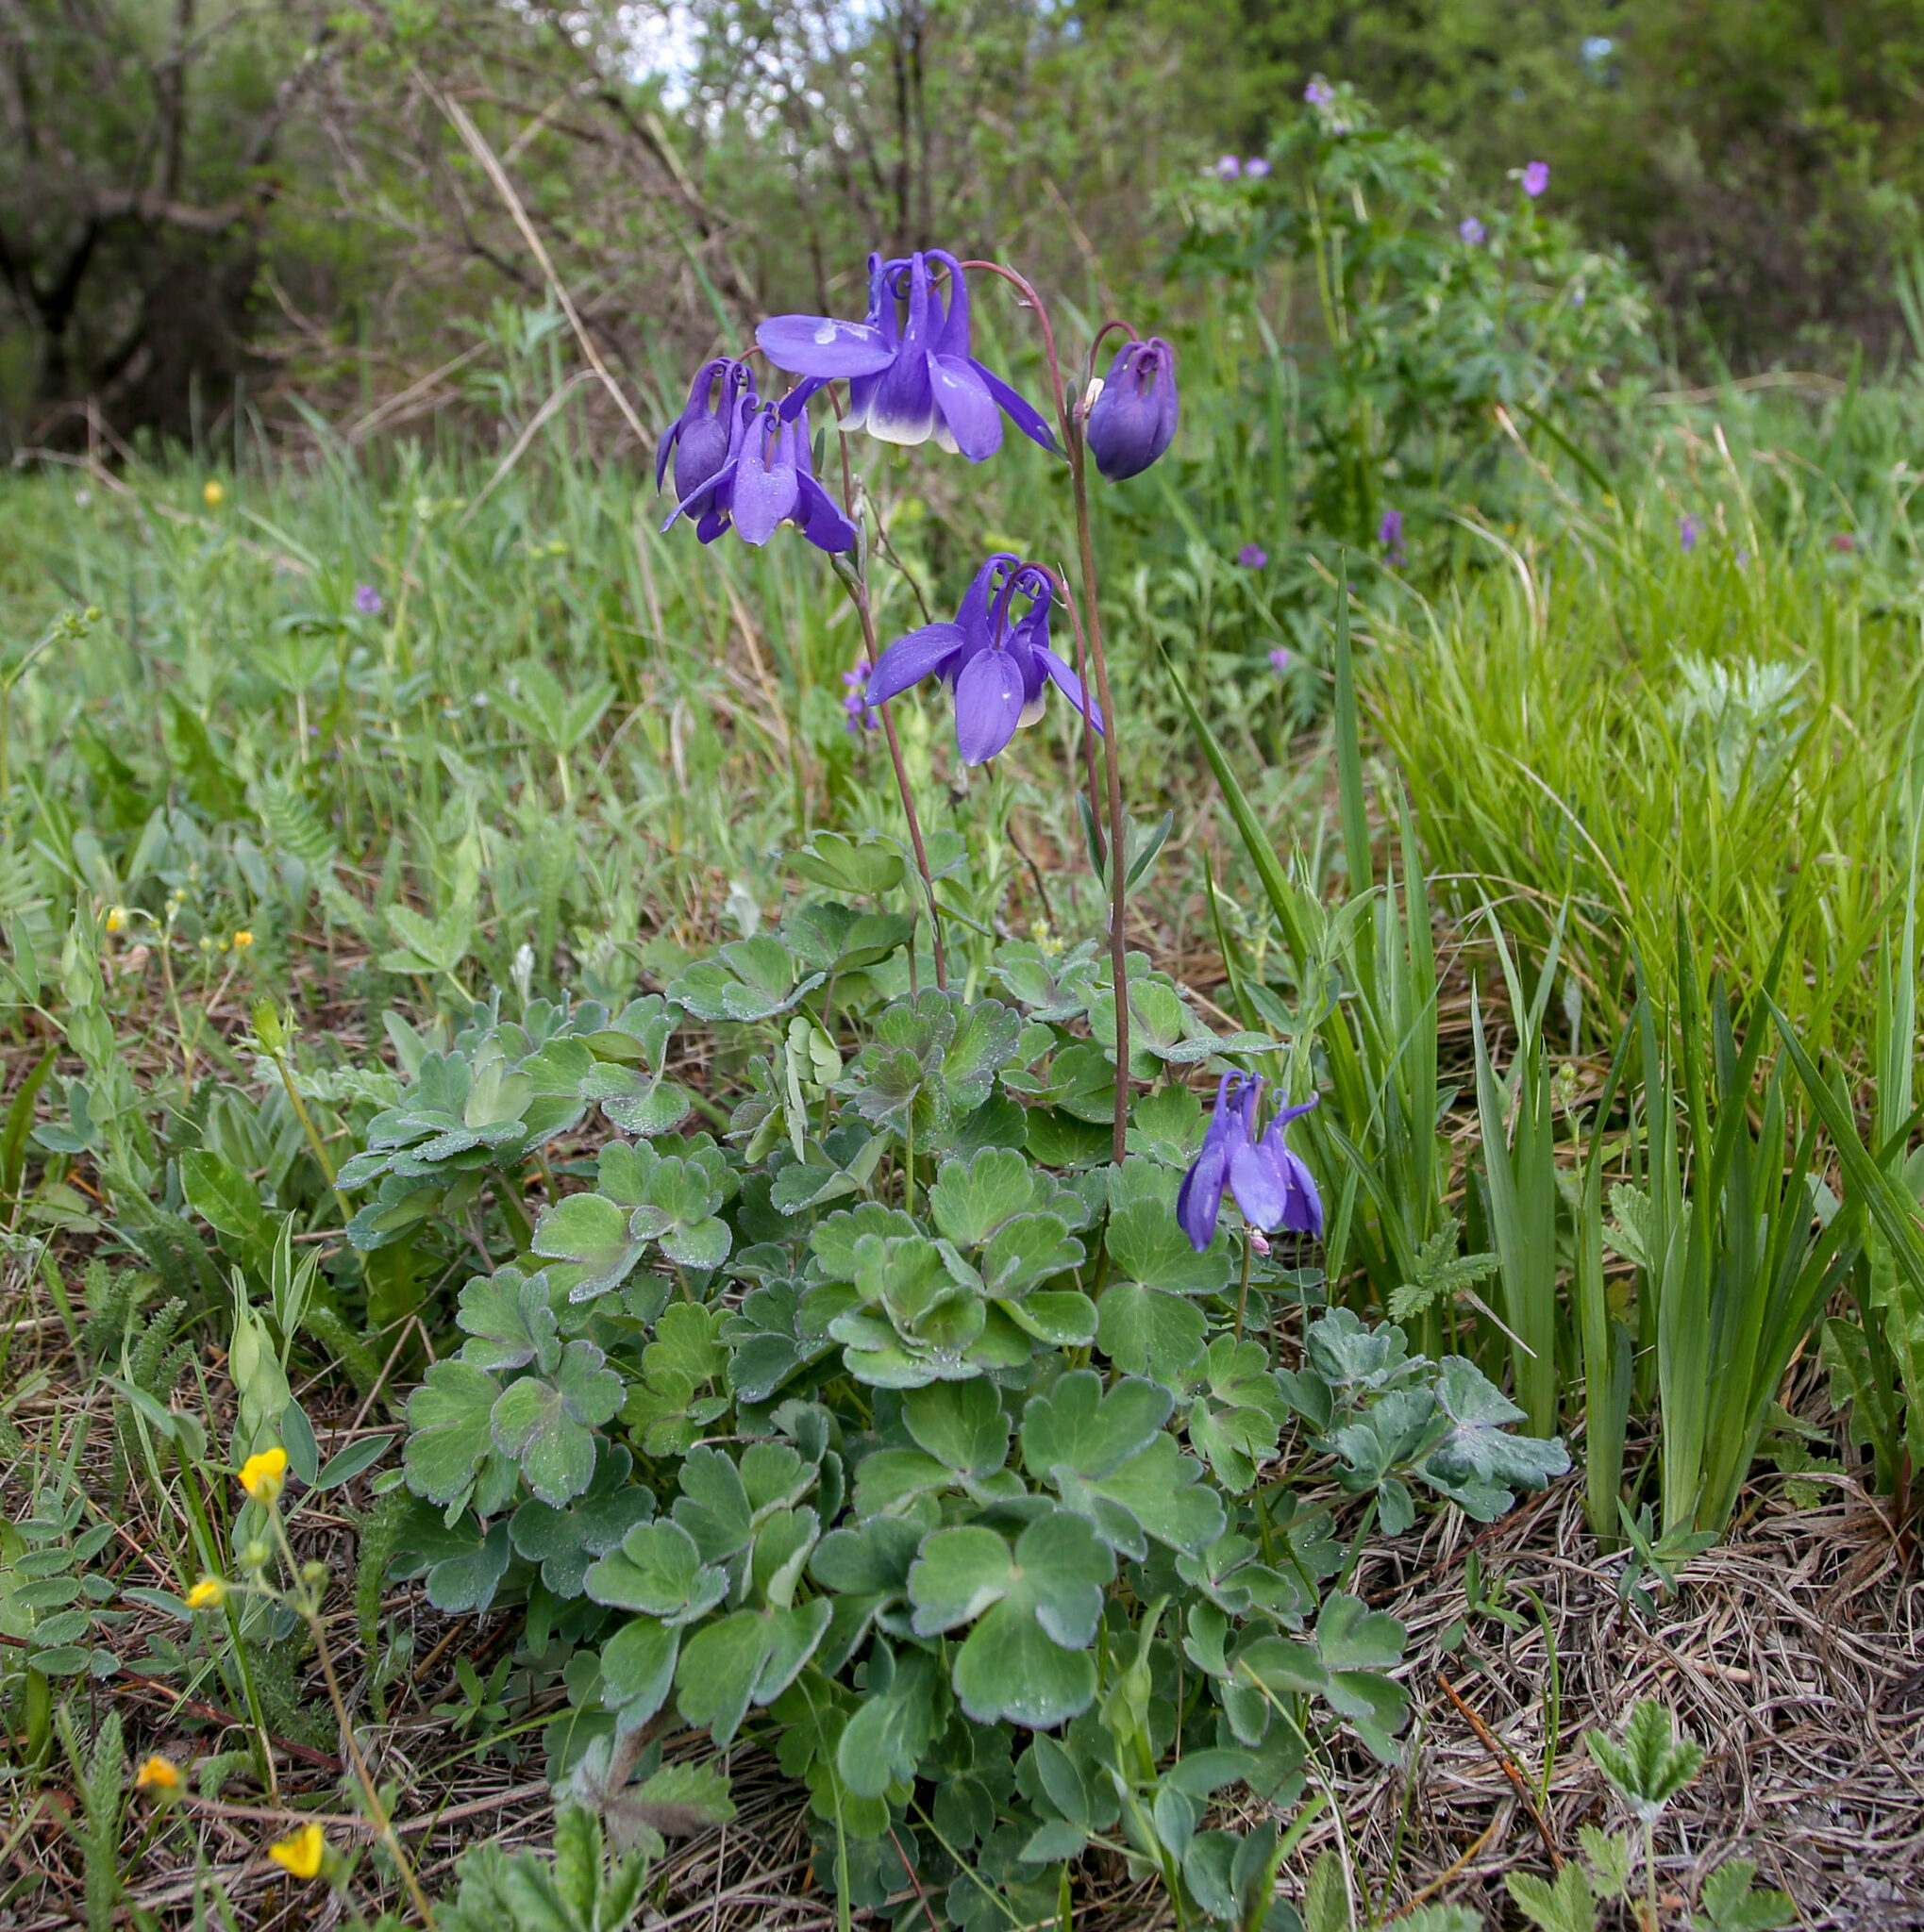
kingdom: Plantae
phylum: Tracheophyta
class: Magnoliopsida
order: Ranunculales
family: Ranunculaceae
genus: Aquilegia
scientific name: Aquilegia sibirica
